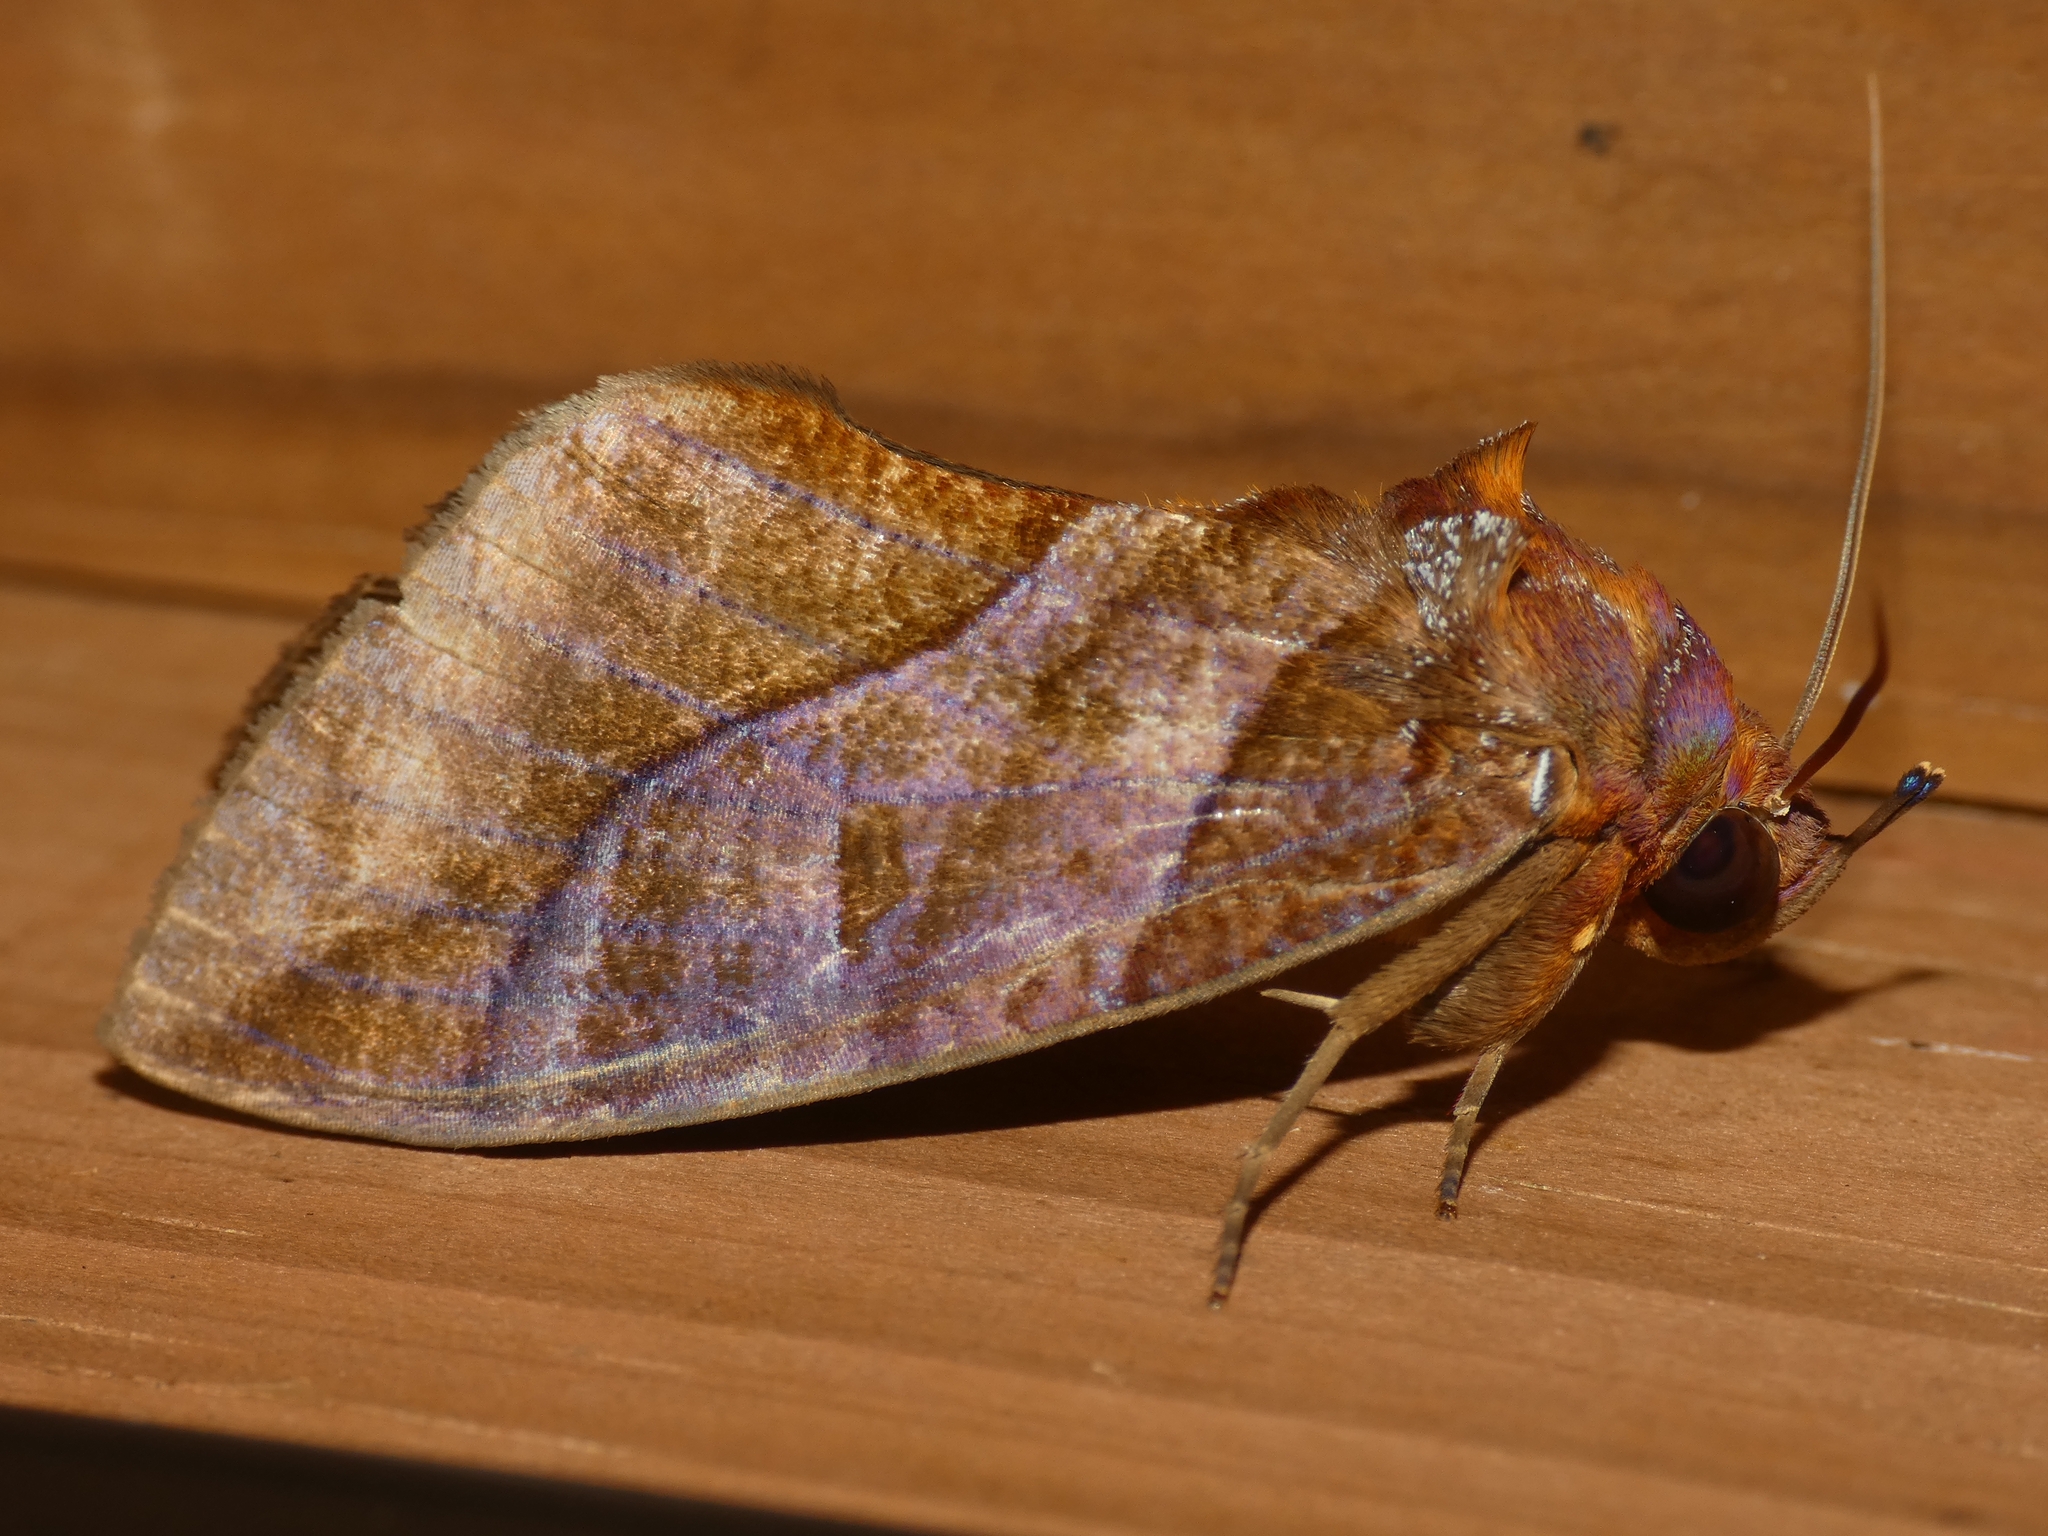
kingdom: Animalia
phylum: Arthropoda
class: Insecta
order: Lepidoptera
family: Erebidae
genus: Eudocima
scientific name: Eudocima phalonia
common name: Wasp
